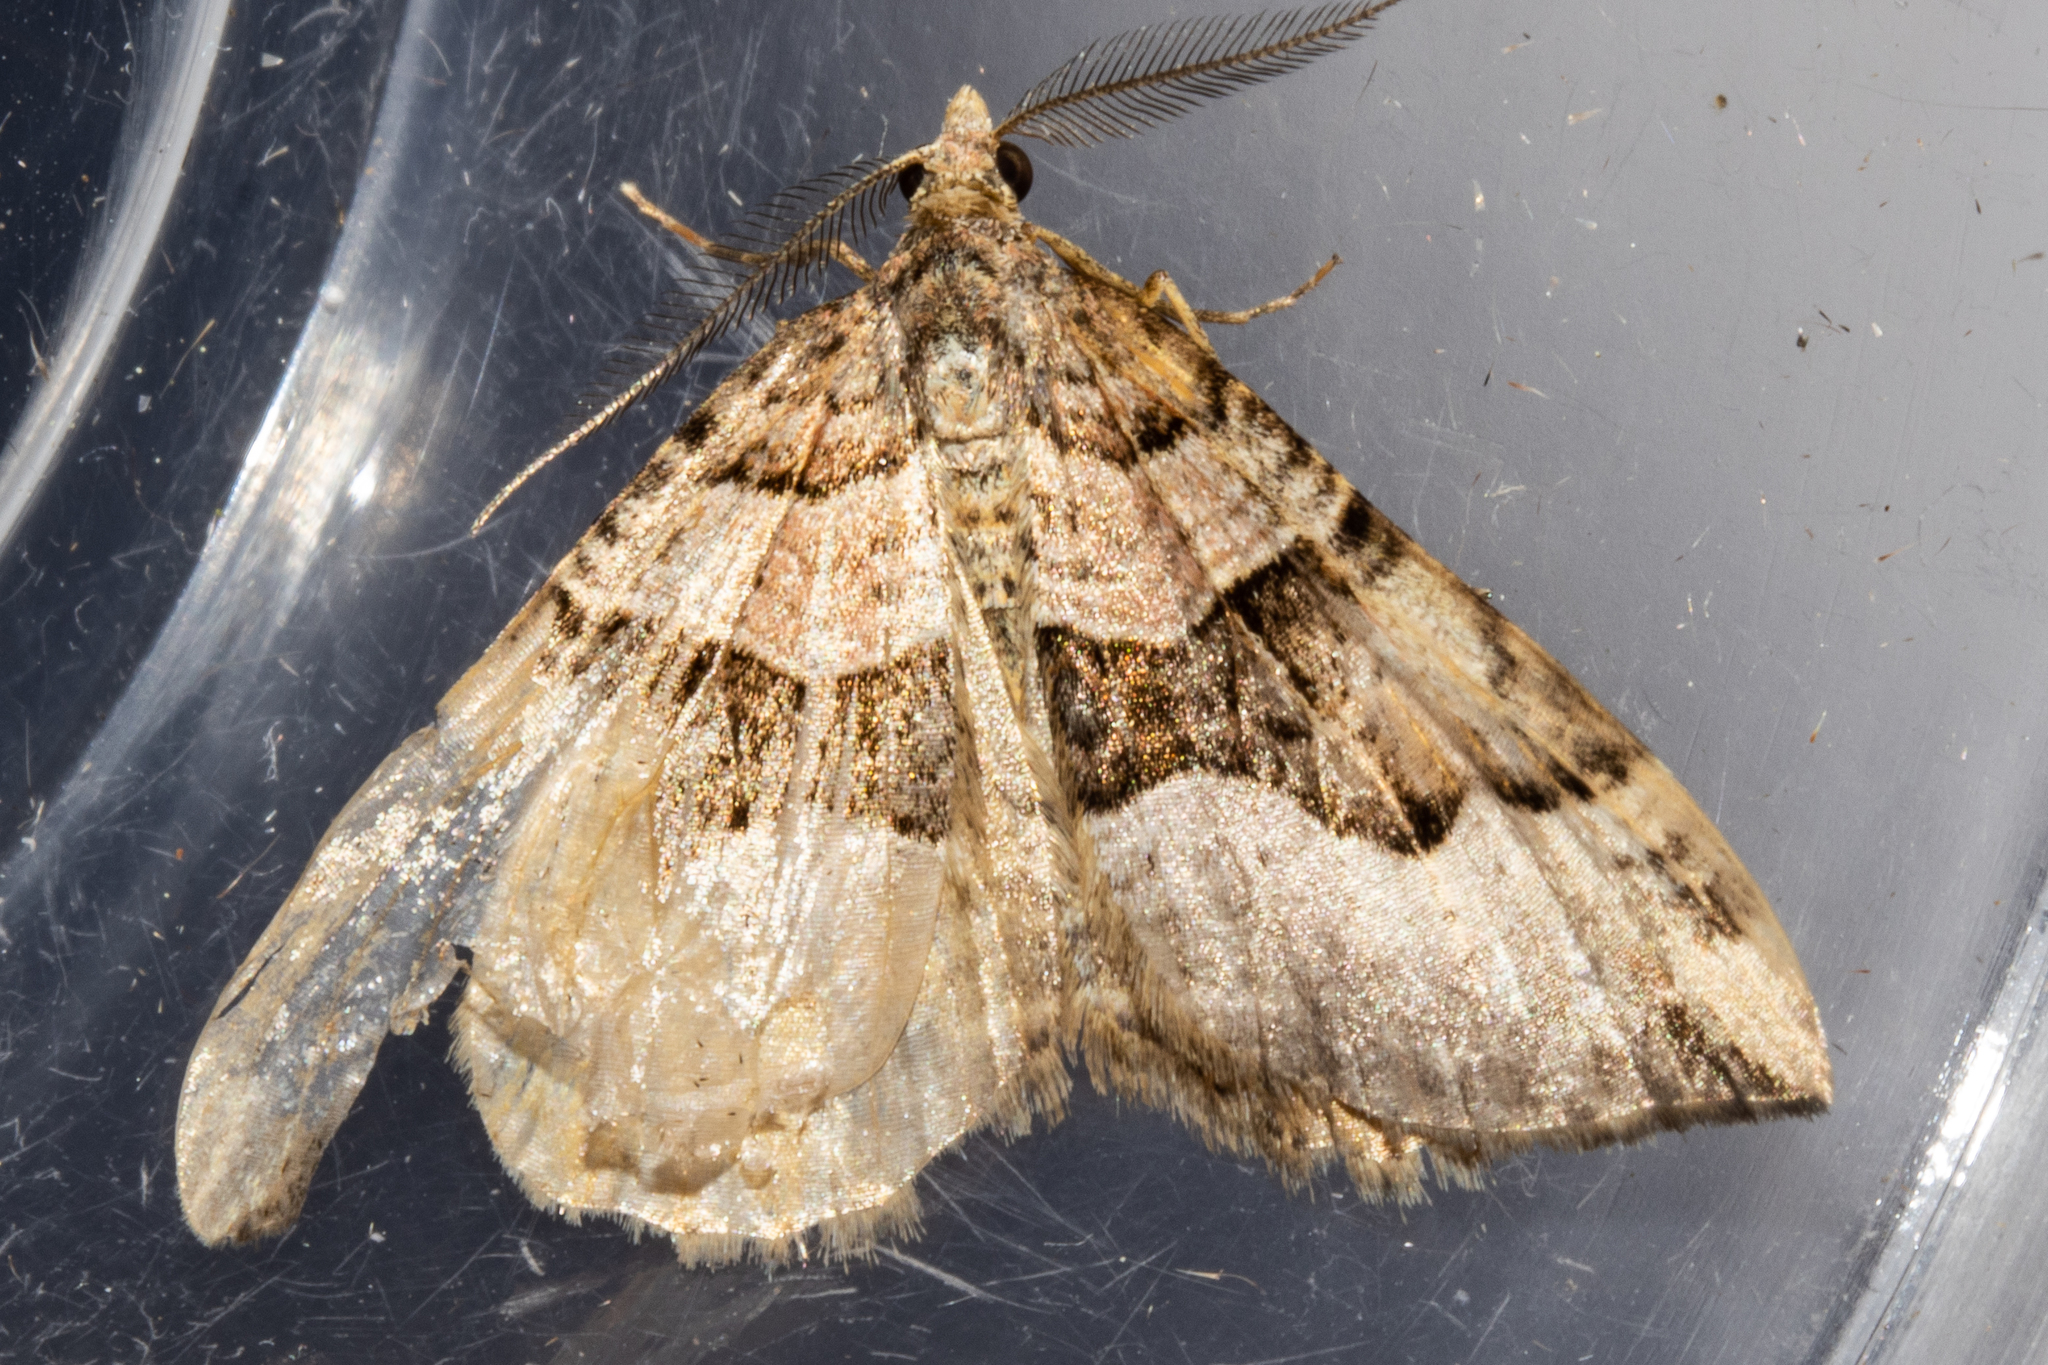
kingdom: Animalia
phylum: Arthropoda
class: Insecta
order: Lepidoptera
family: Geometridae
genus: Xanthorhoe
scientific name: Xanthorhoe semifissata
